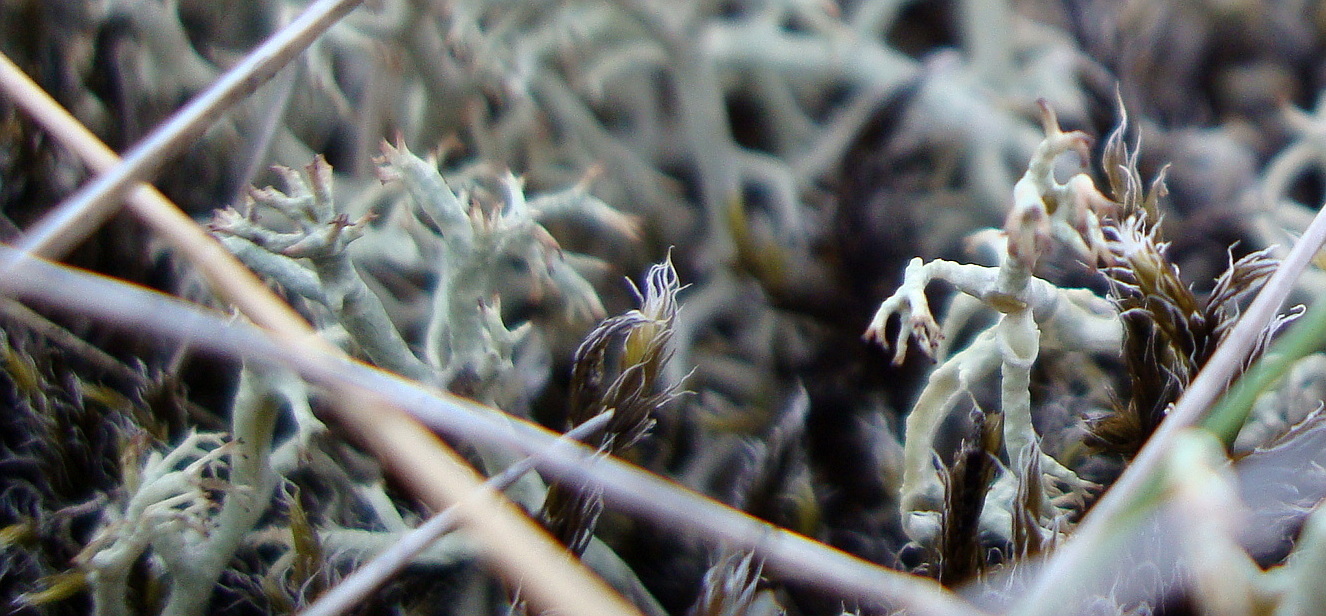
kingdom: Fungi
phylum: Ascomycota
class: Lecanoromycetes
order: Lecanorales
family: Cladoniaceae
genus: Cladonia
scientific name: Cladonia rangiferina
